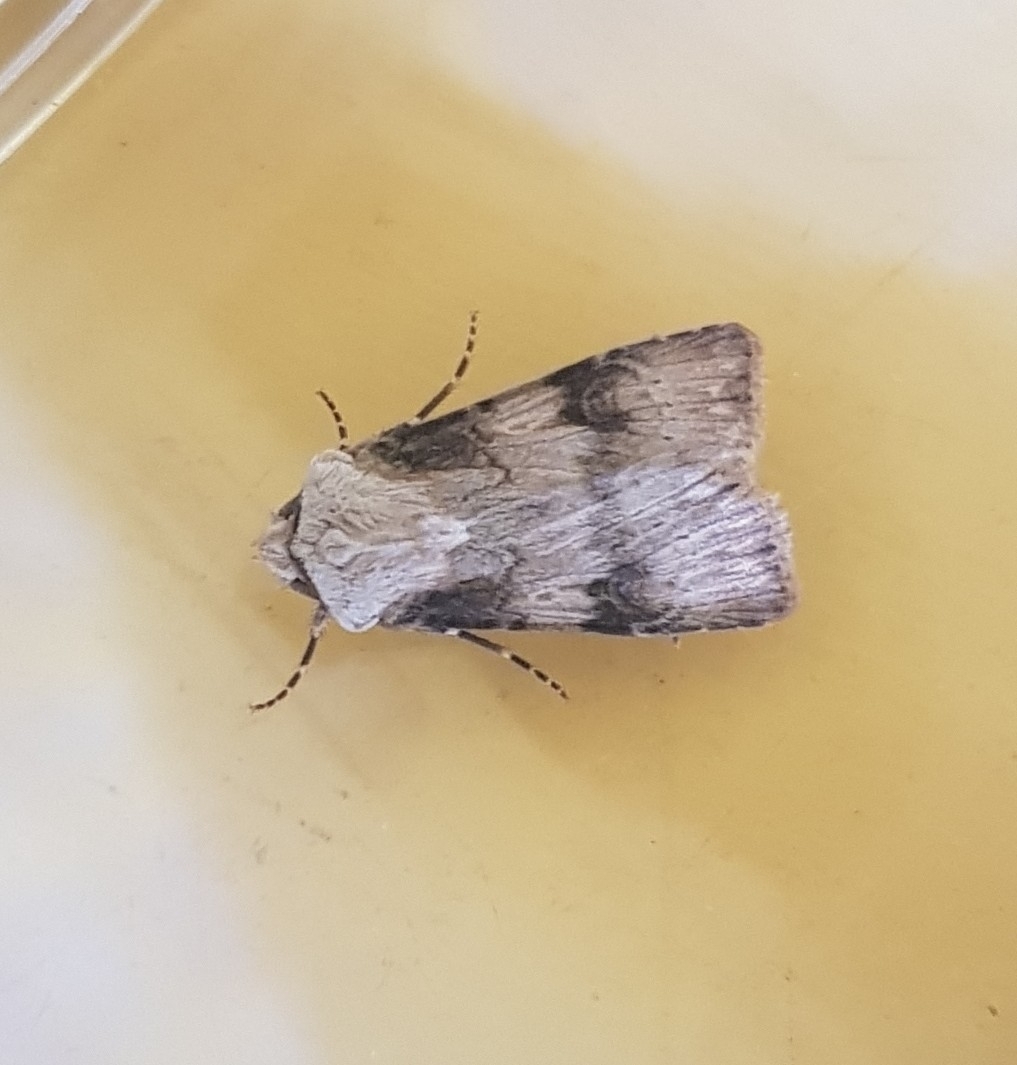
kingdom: Animalia
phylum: Arthropoda
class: Insecta
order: Lepidoptera
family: Noctuidae
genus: Agrotis
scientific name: Agrotis puta
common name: Shuttle-shaped dart
